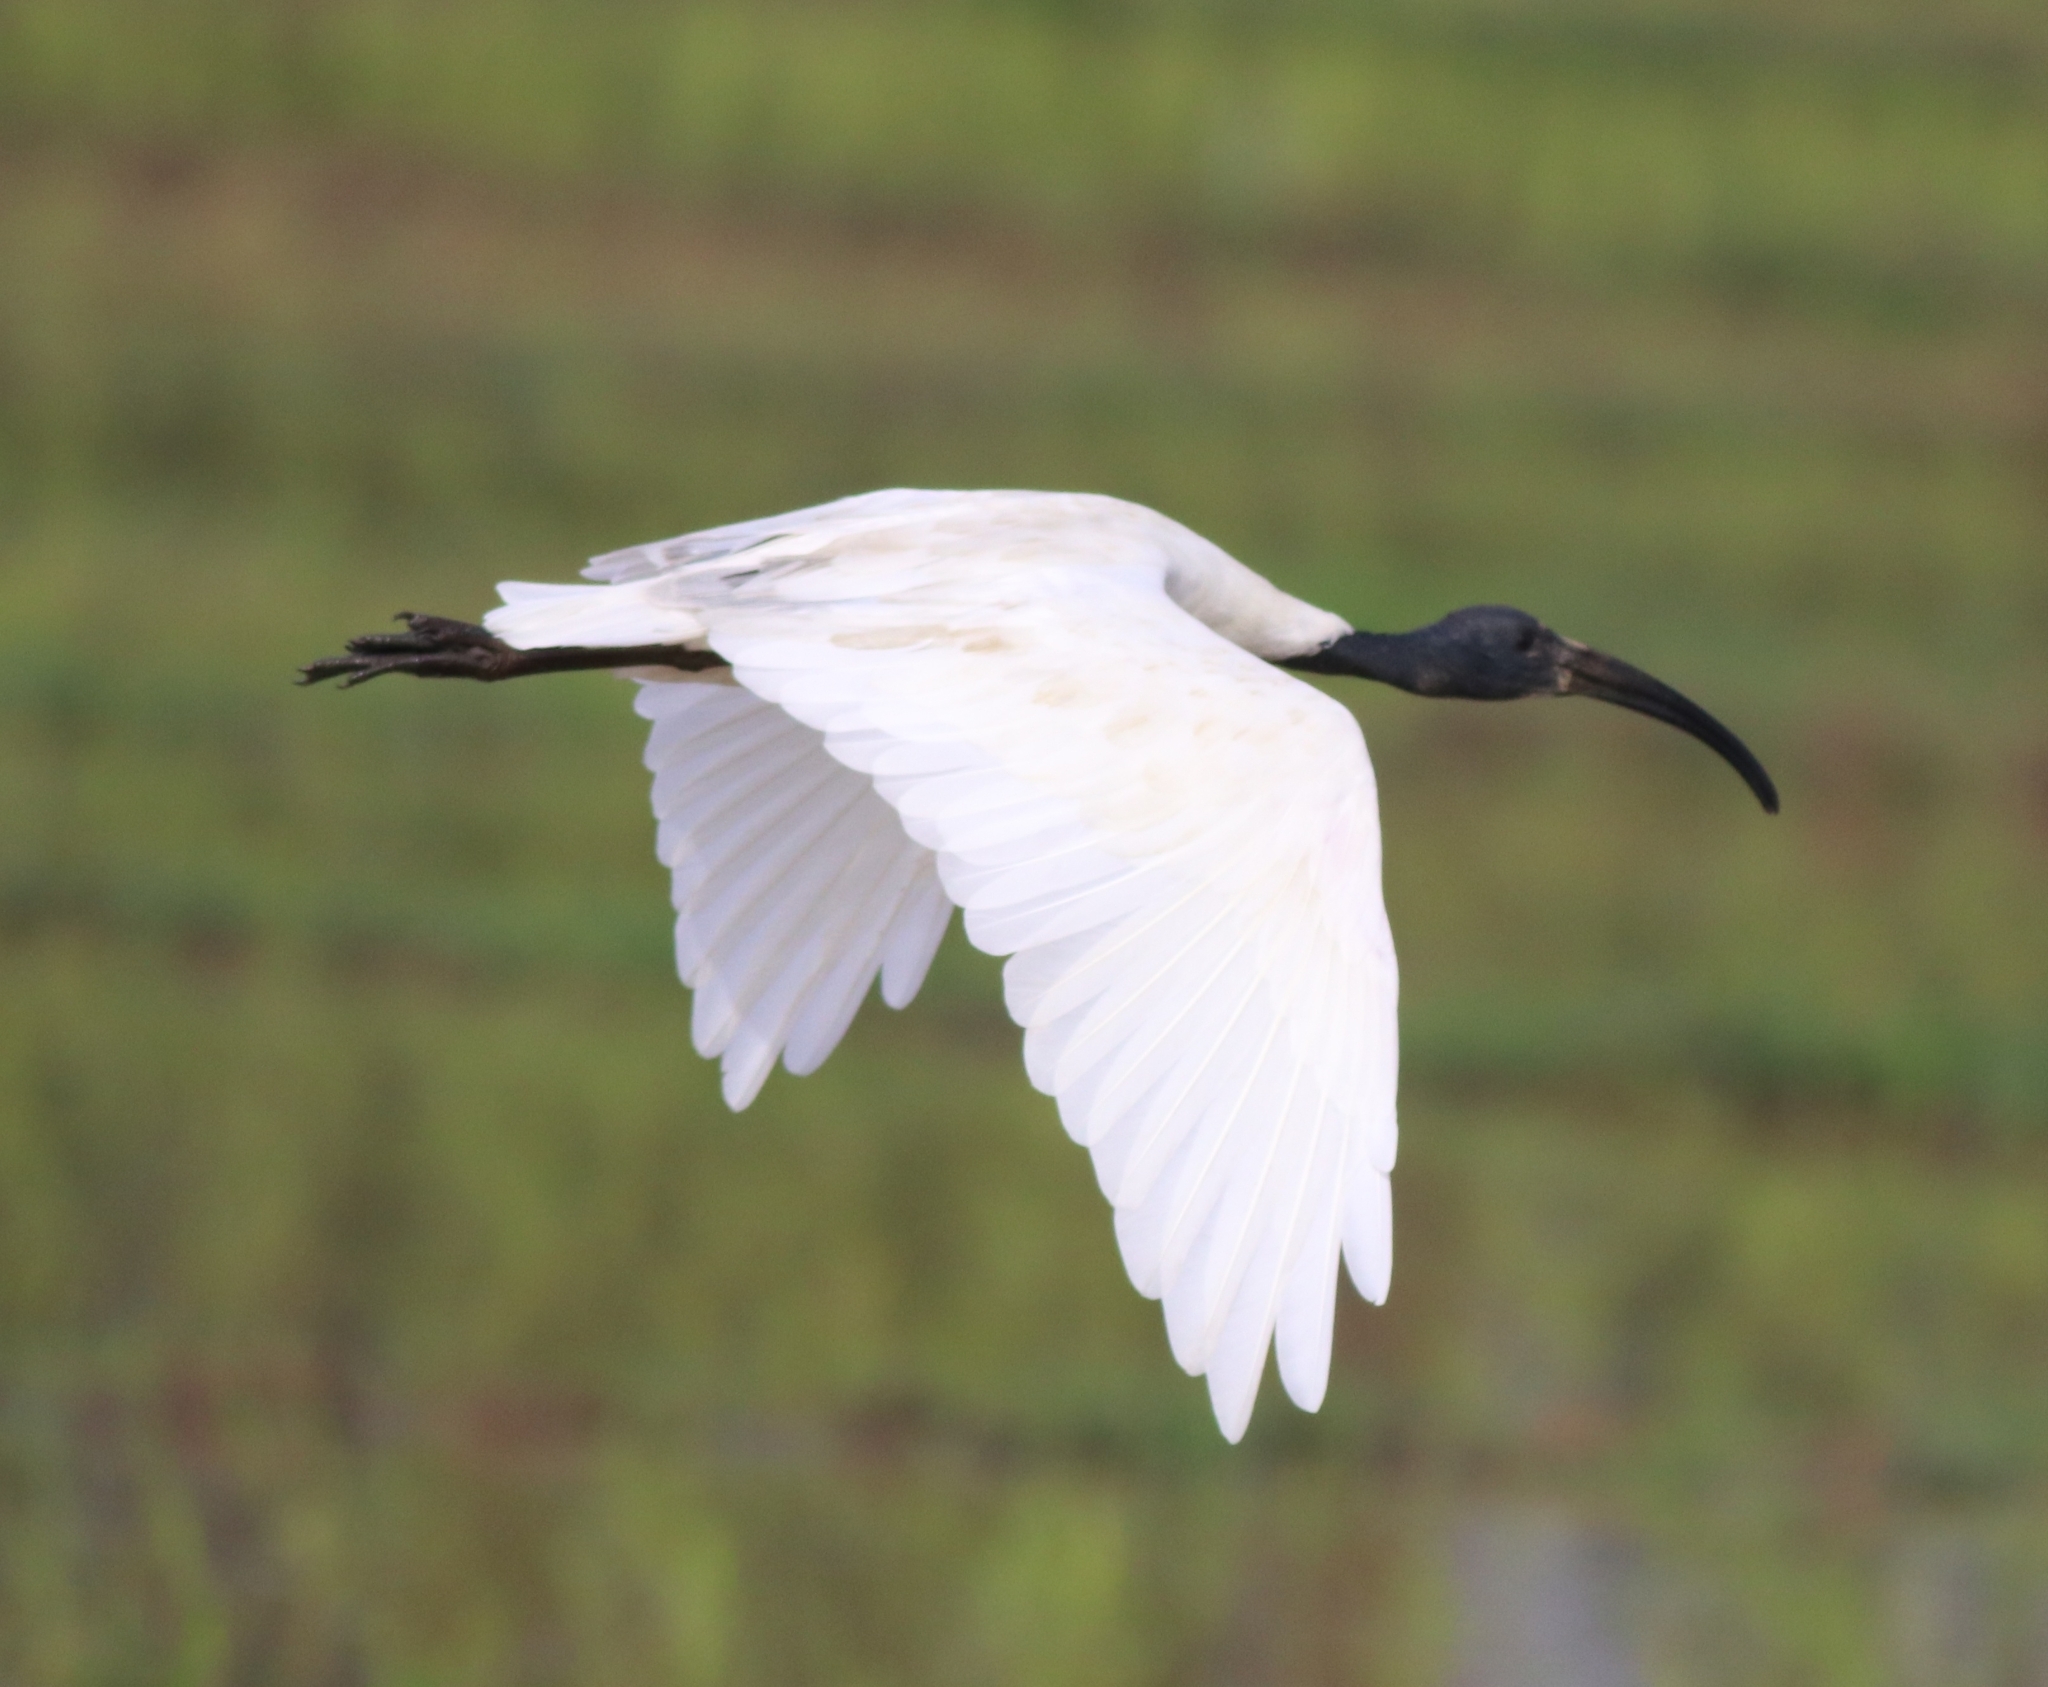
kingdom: Animalia
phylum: Chordata
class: Aves
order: Pelecaniformes
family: Threskiornithidae
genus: Threskiornis
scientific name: Threskiornis melanocephalus
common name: Black-headed ibis
